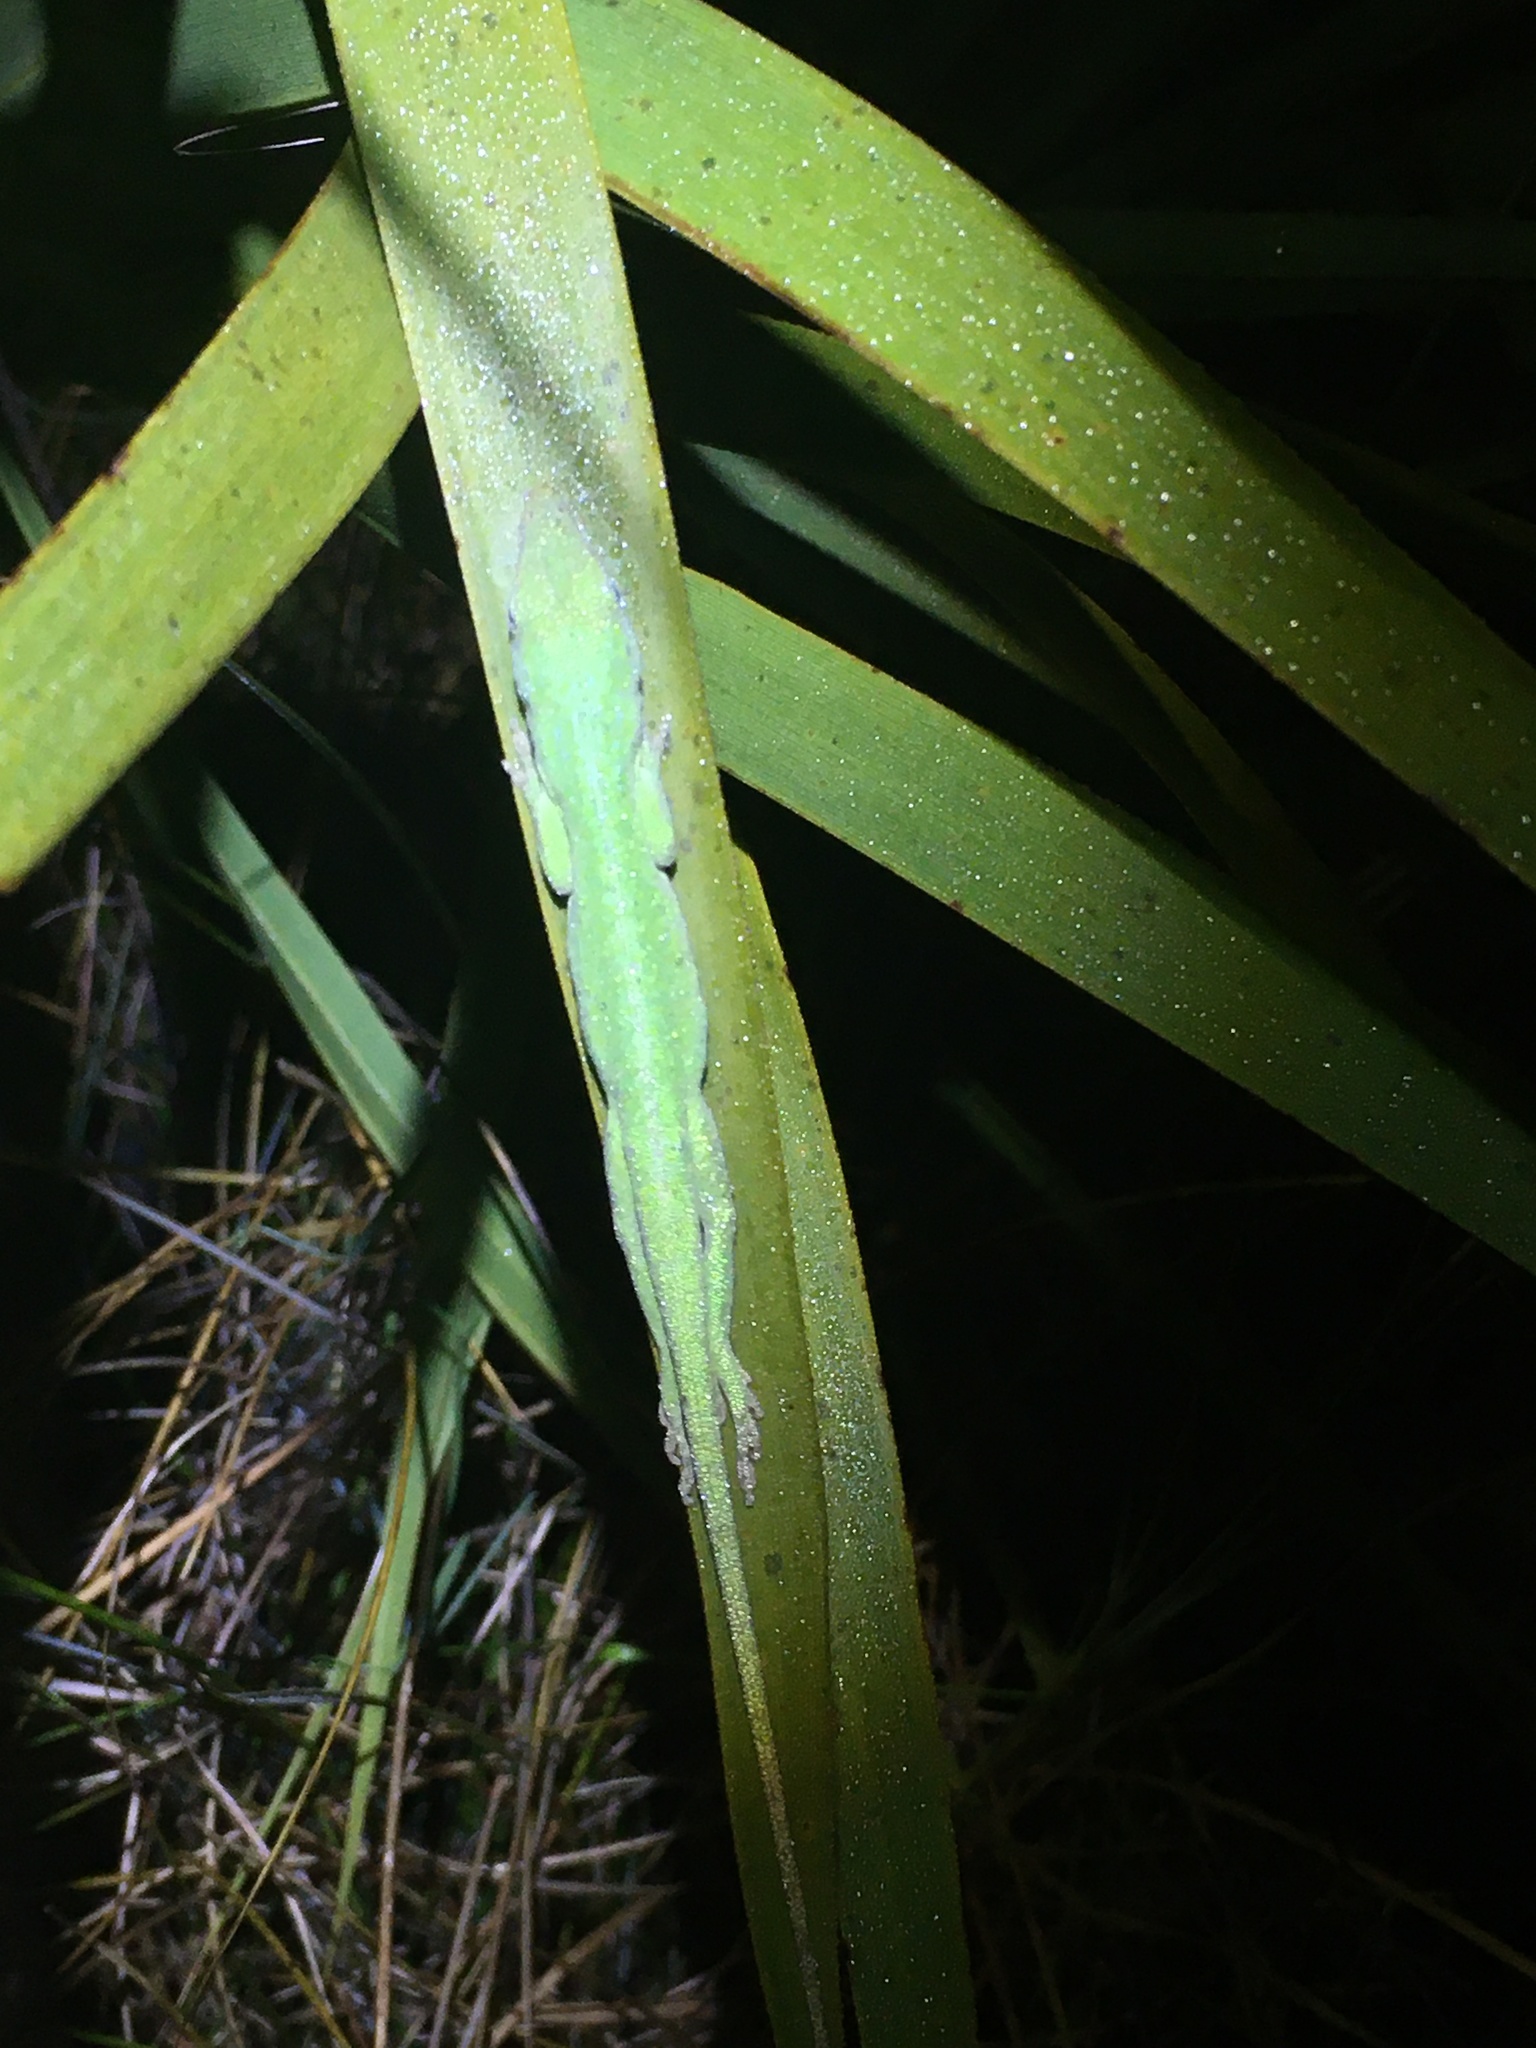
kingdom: Animalia
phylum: Chordata
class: Squamata
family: Dactyloidae
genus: Anolis
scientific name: Anolis carolinensis
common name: Green anole
